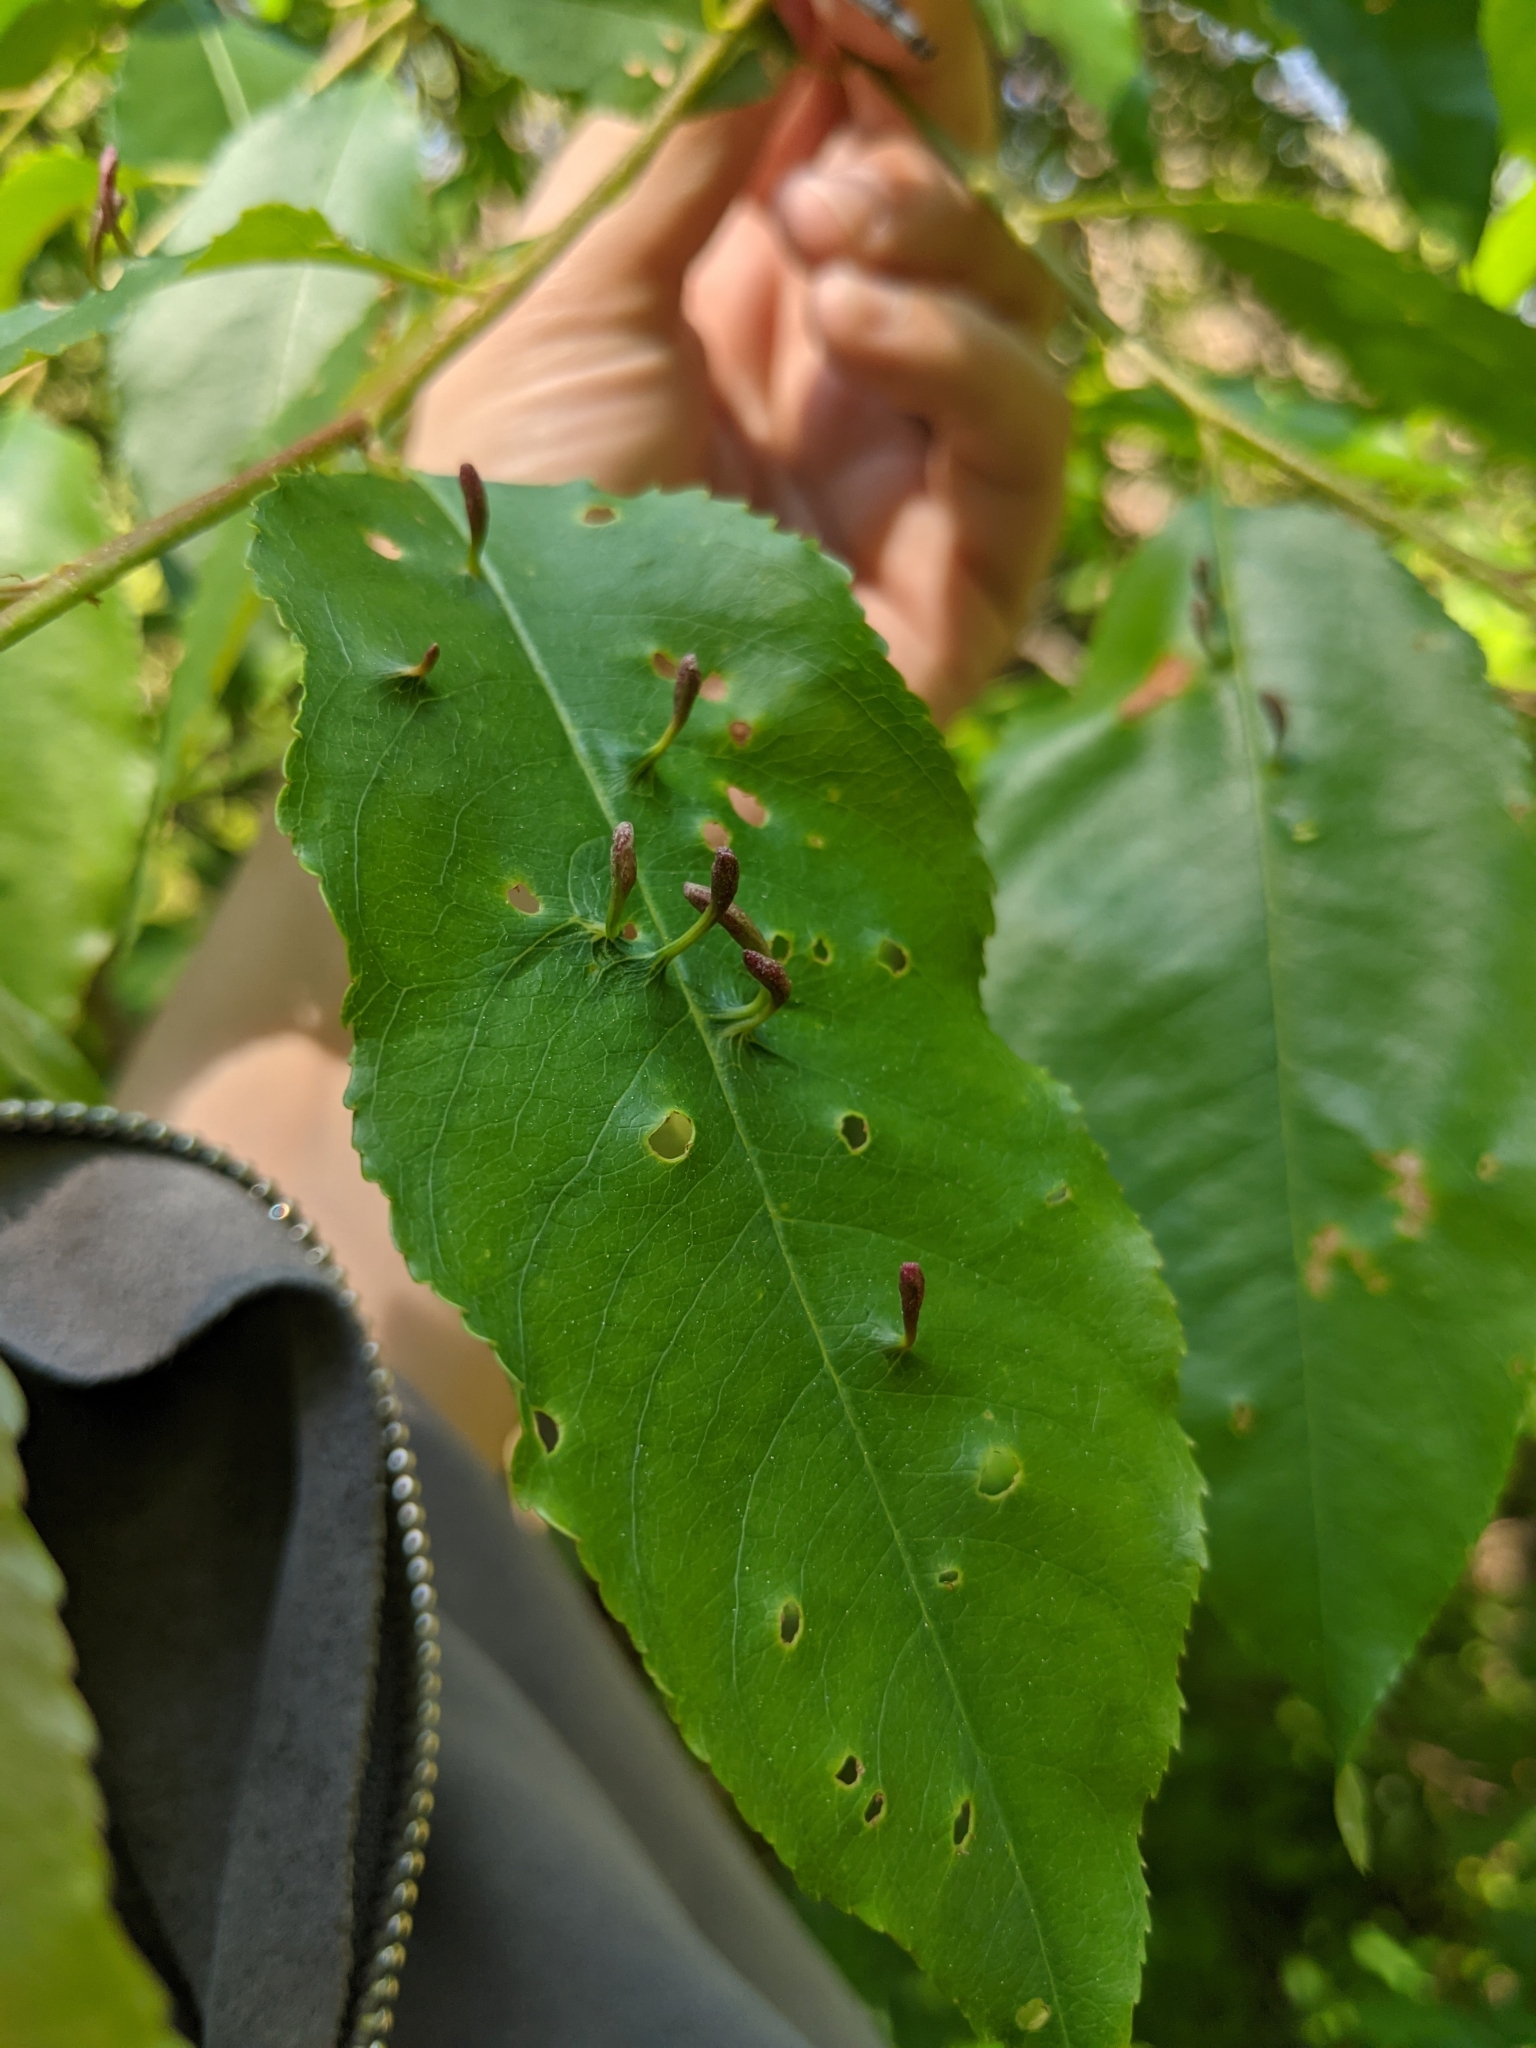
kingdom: Animalia
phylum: Arthropoda
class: Arachnida
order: Trombidiformes
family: Eriophyidae
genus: Eriophyes
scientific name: Eriophyes
